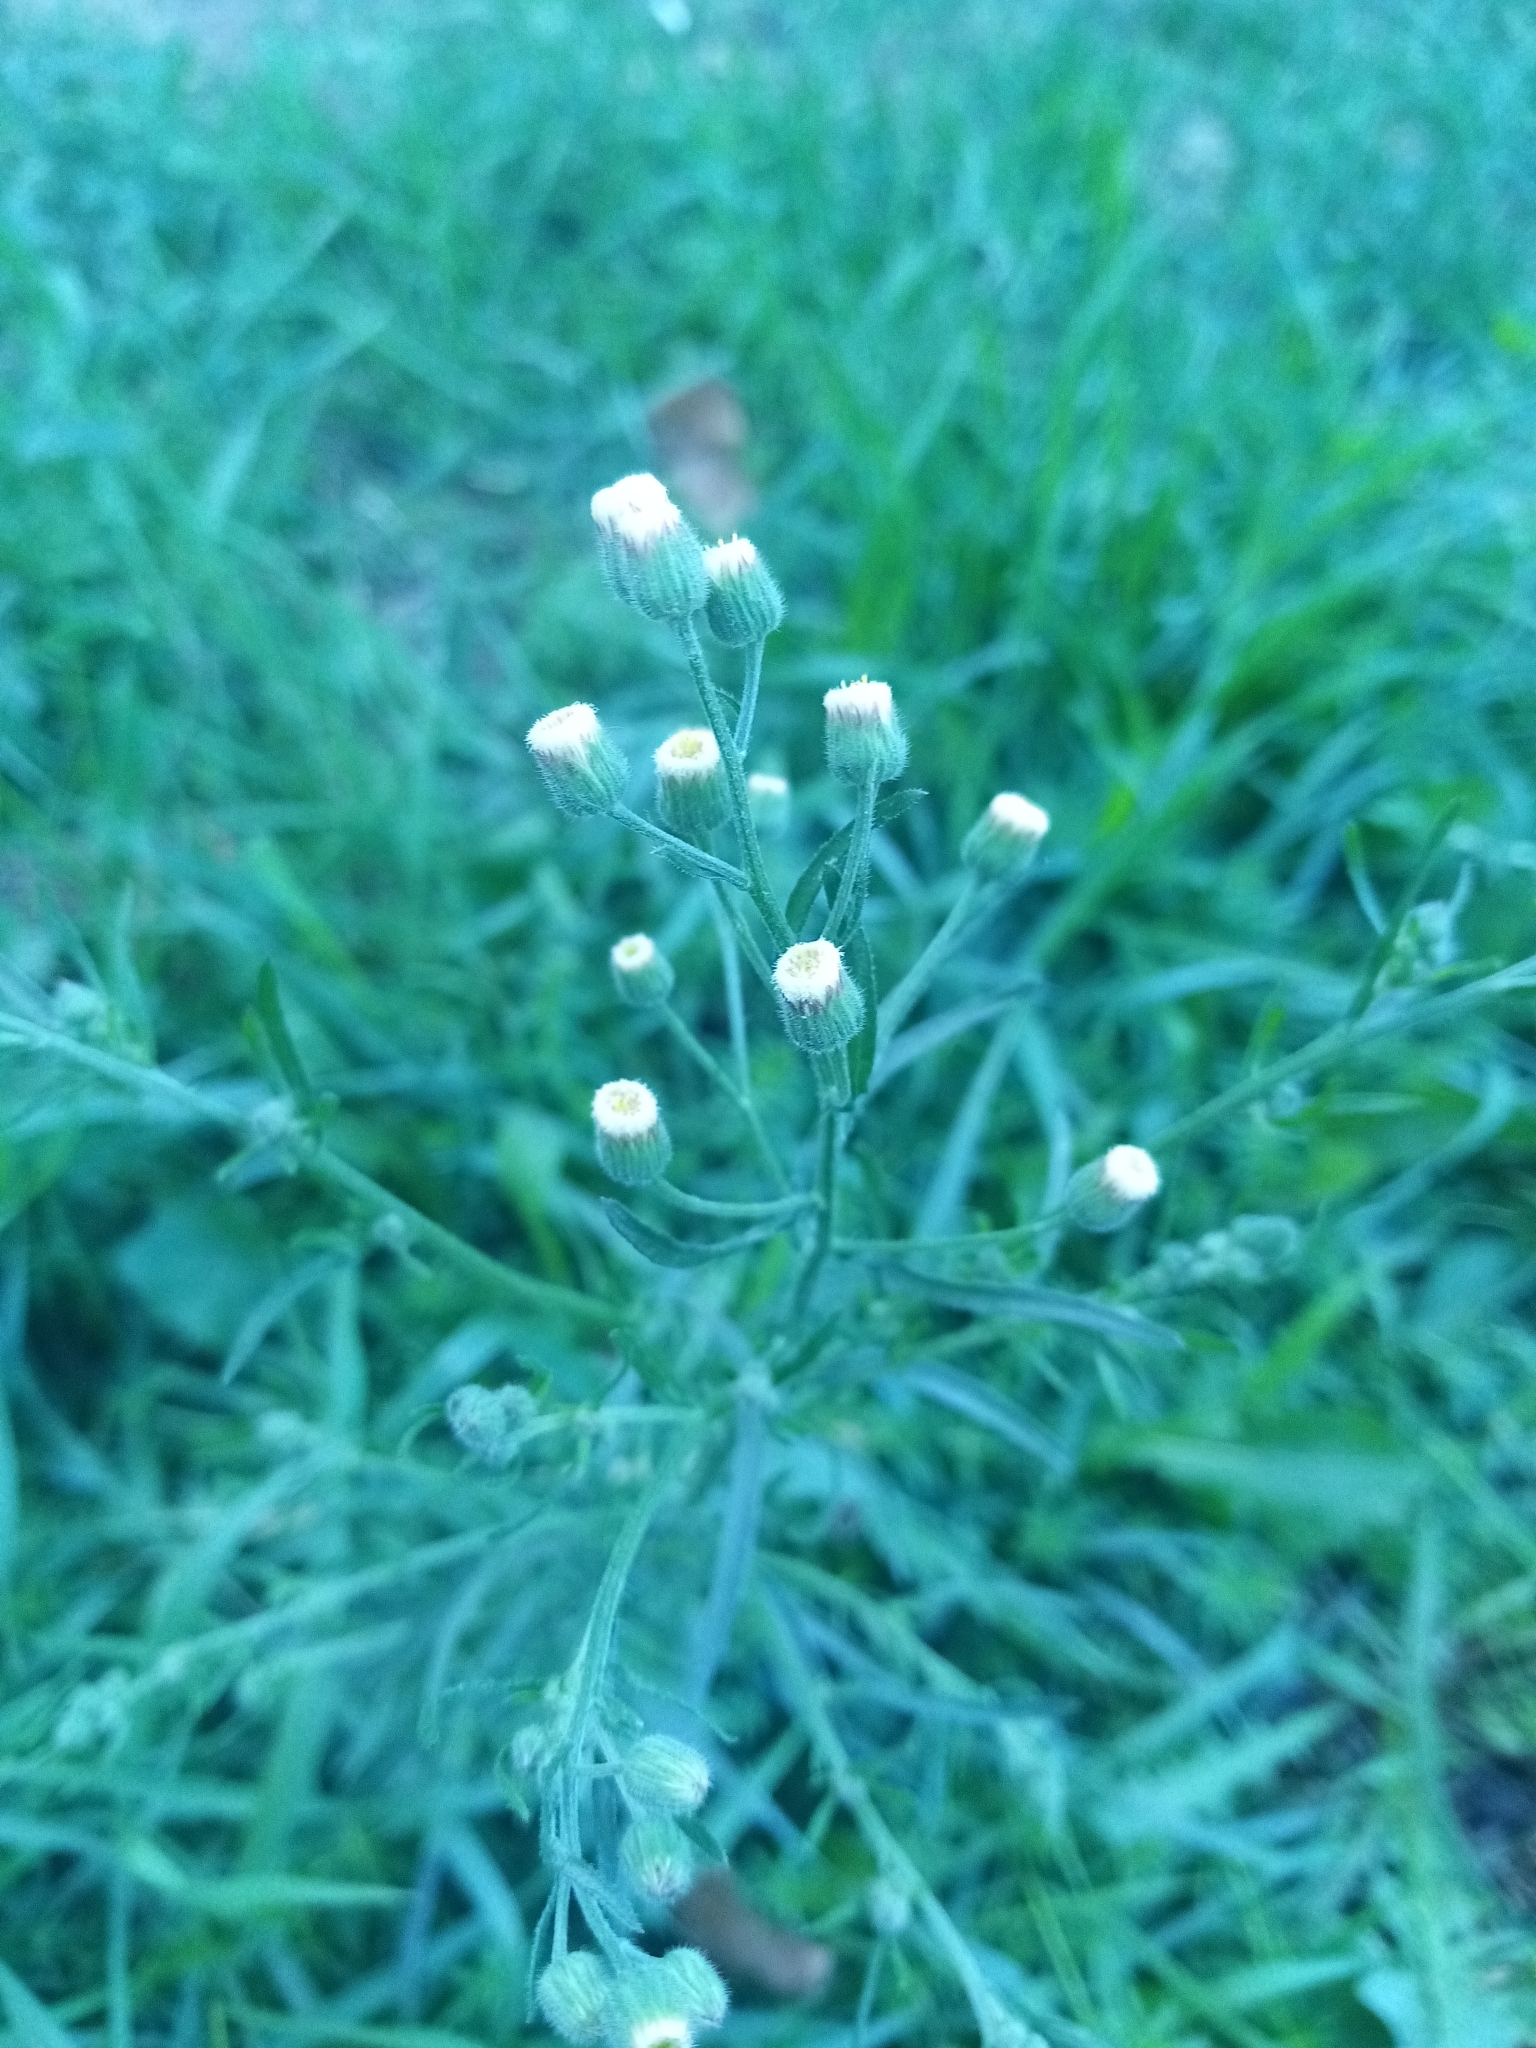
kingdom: Plantae
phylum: Tracheophyta
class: Magnoliopsida
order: Asterales
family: Asteraceae
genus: Erigeron
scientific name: Erigeron bonariensis
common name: Argentine fleabane
